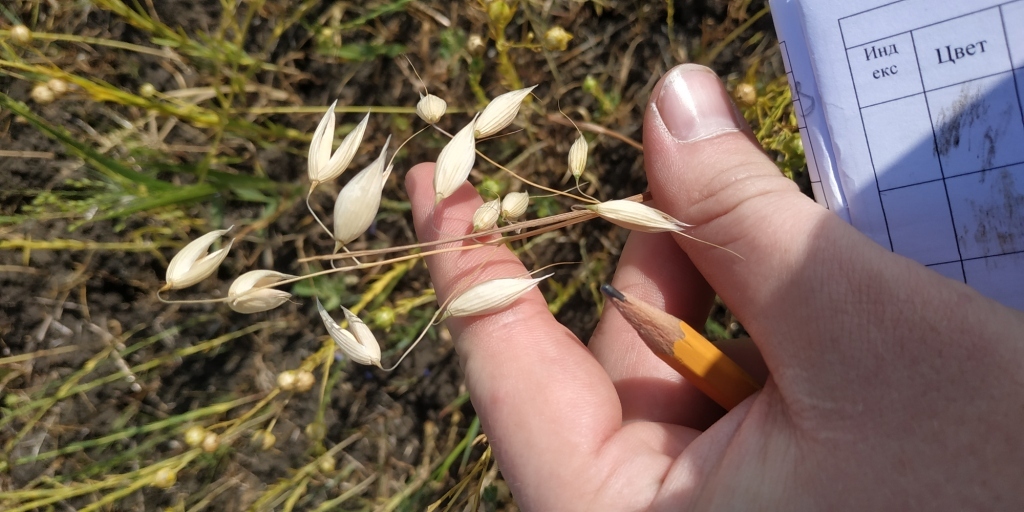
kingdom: Plantae
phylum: Tracheophyta
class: Liliopsida
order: Poales
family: Poaceae
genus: Avena
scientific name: Avena fatua
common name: Wild oat
